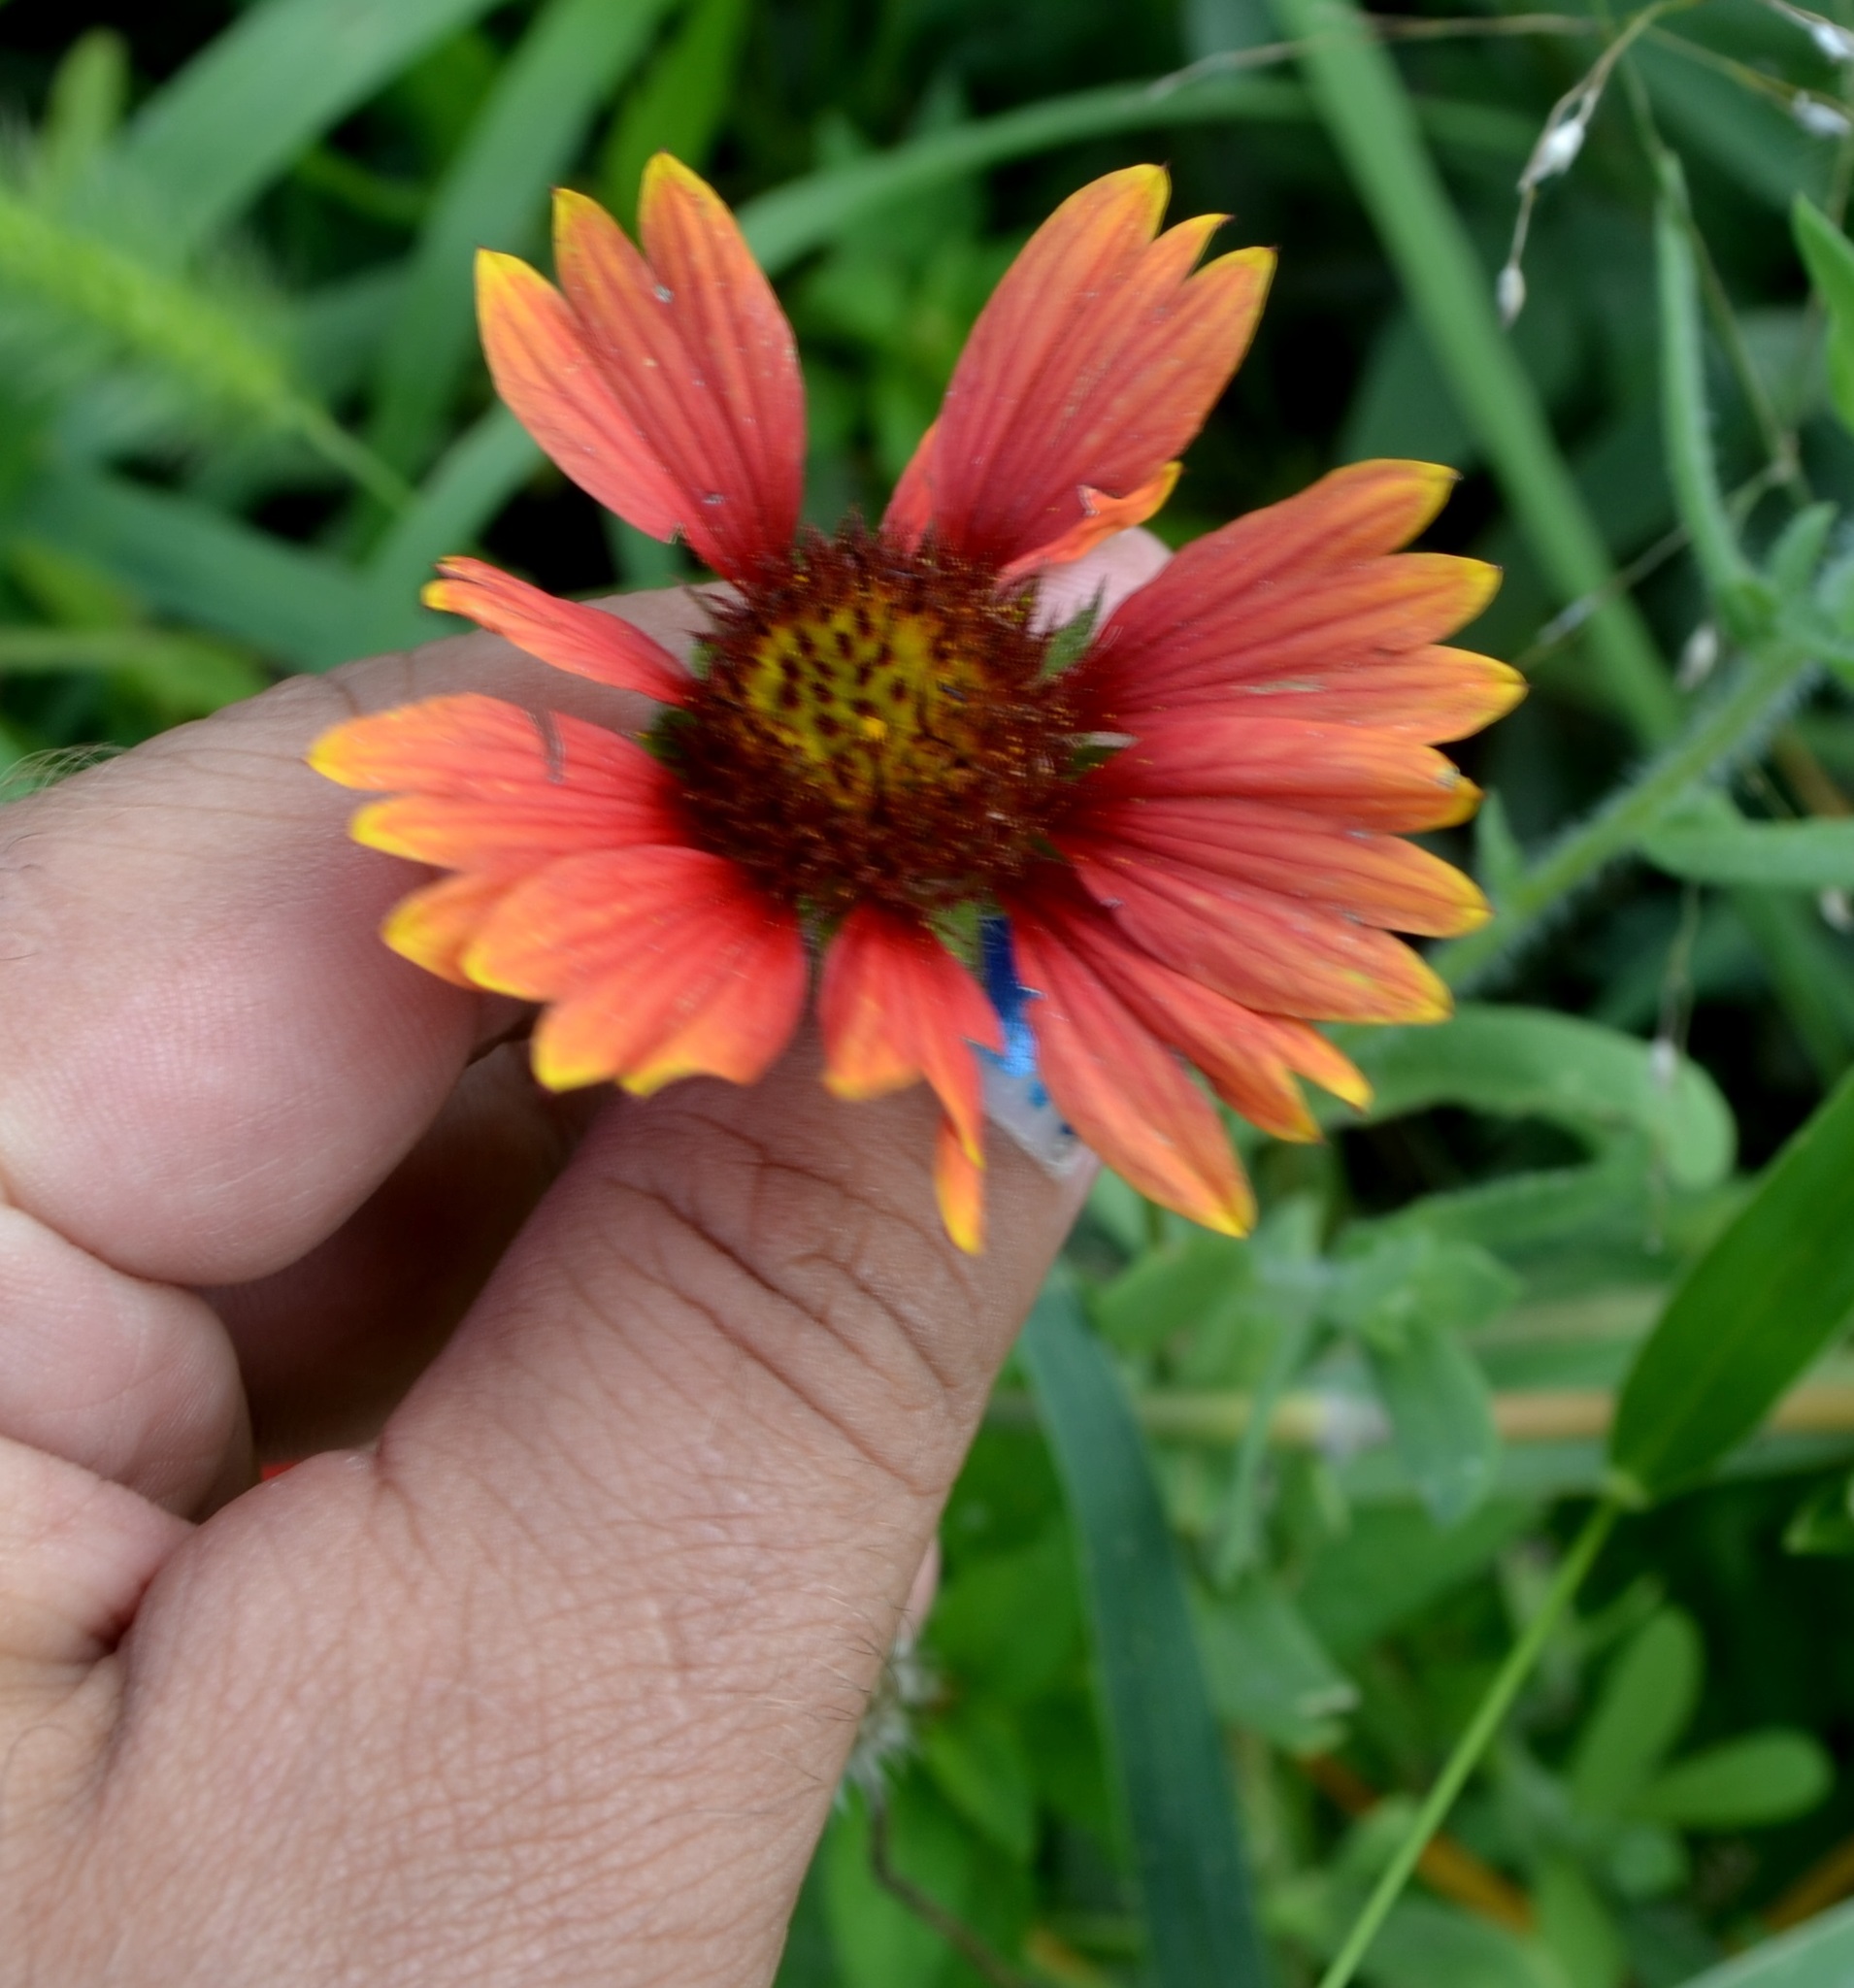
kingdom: Plantae
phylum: Tracheophyta
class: Magnoliopsida
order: Asterales
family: Asteraceae
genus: Gaillardia
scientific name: Gaillardia pulchella
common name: Firewheel
